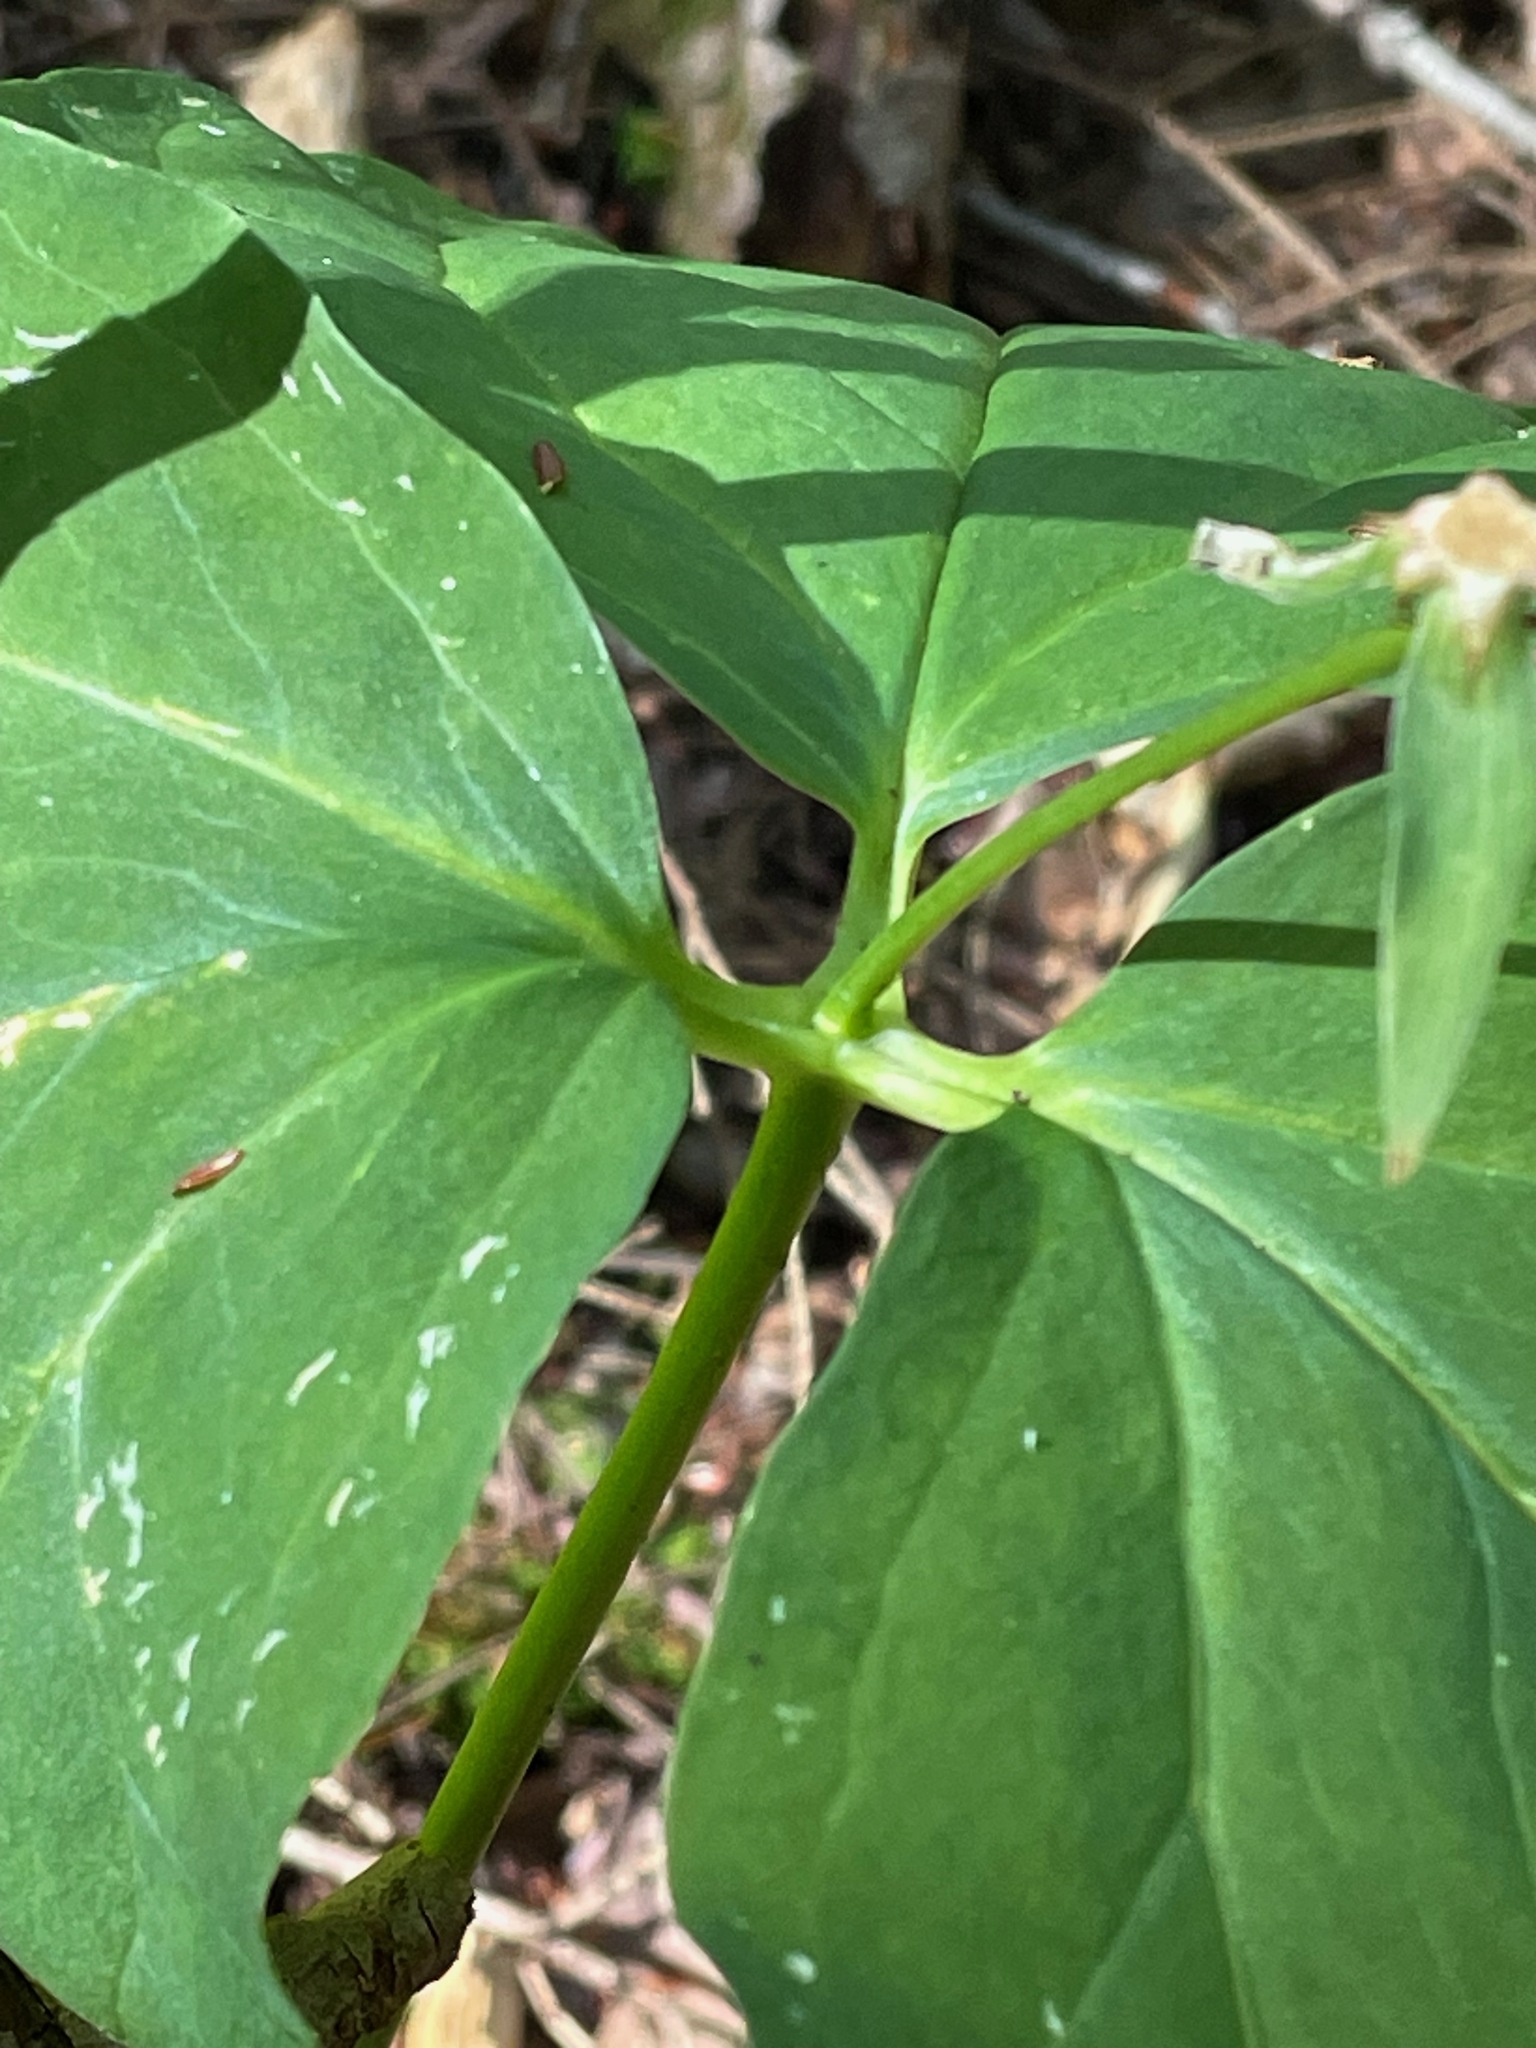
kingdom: Plantae
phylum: Tracheophyta
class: Liliopsida
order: Liliales
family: Melanthiaceae
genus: Trillium
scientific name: Trillium undulatum
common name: Paint trillium
